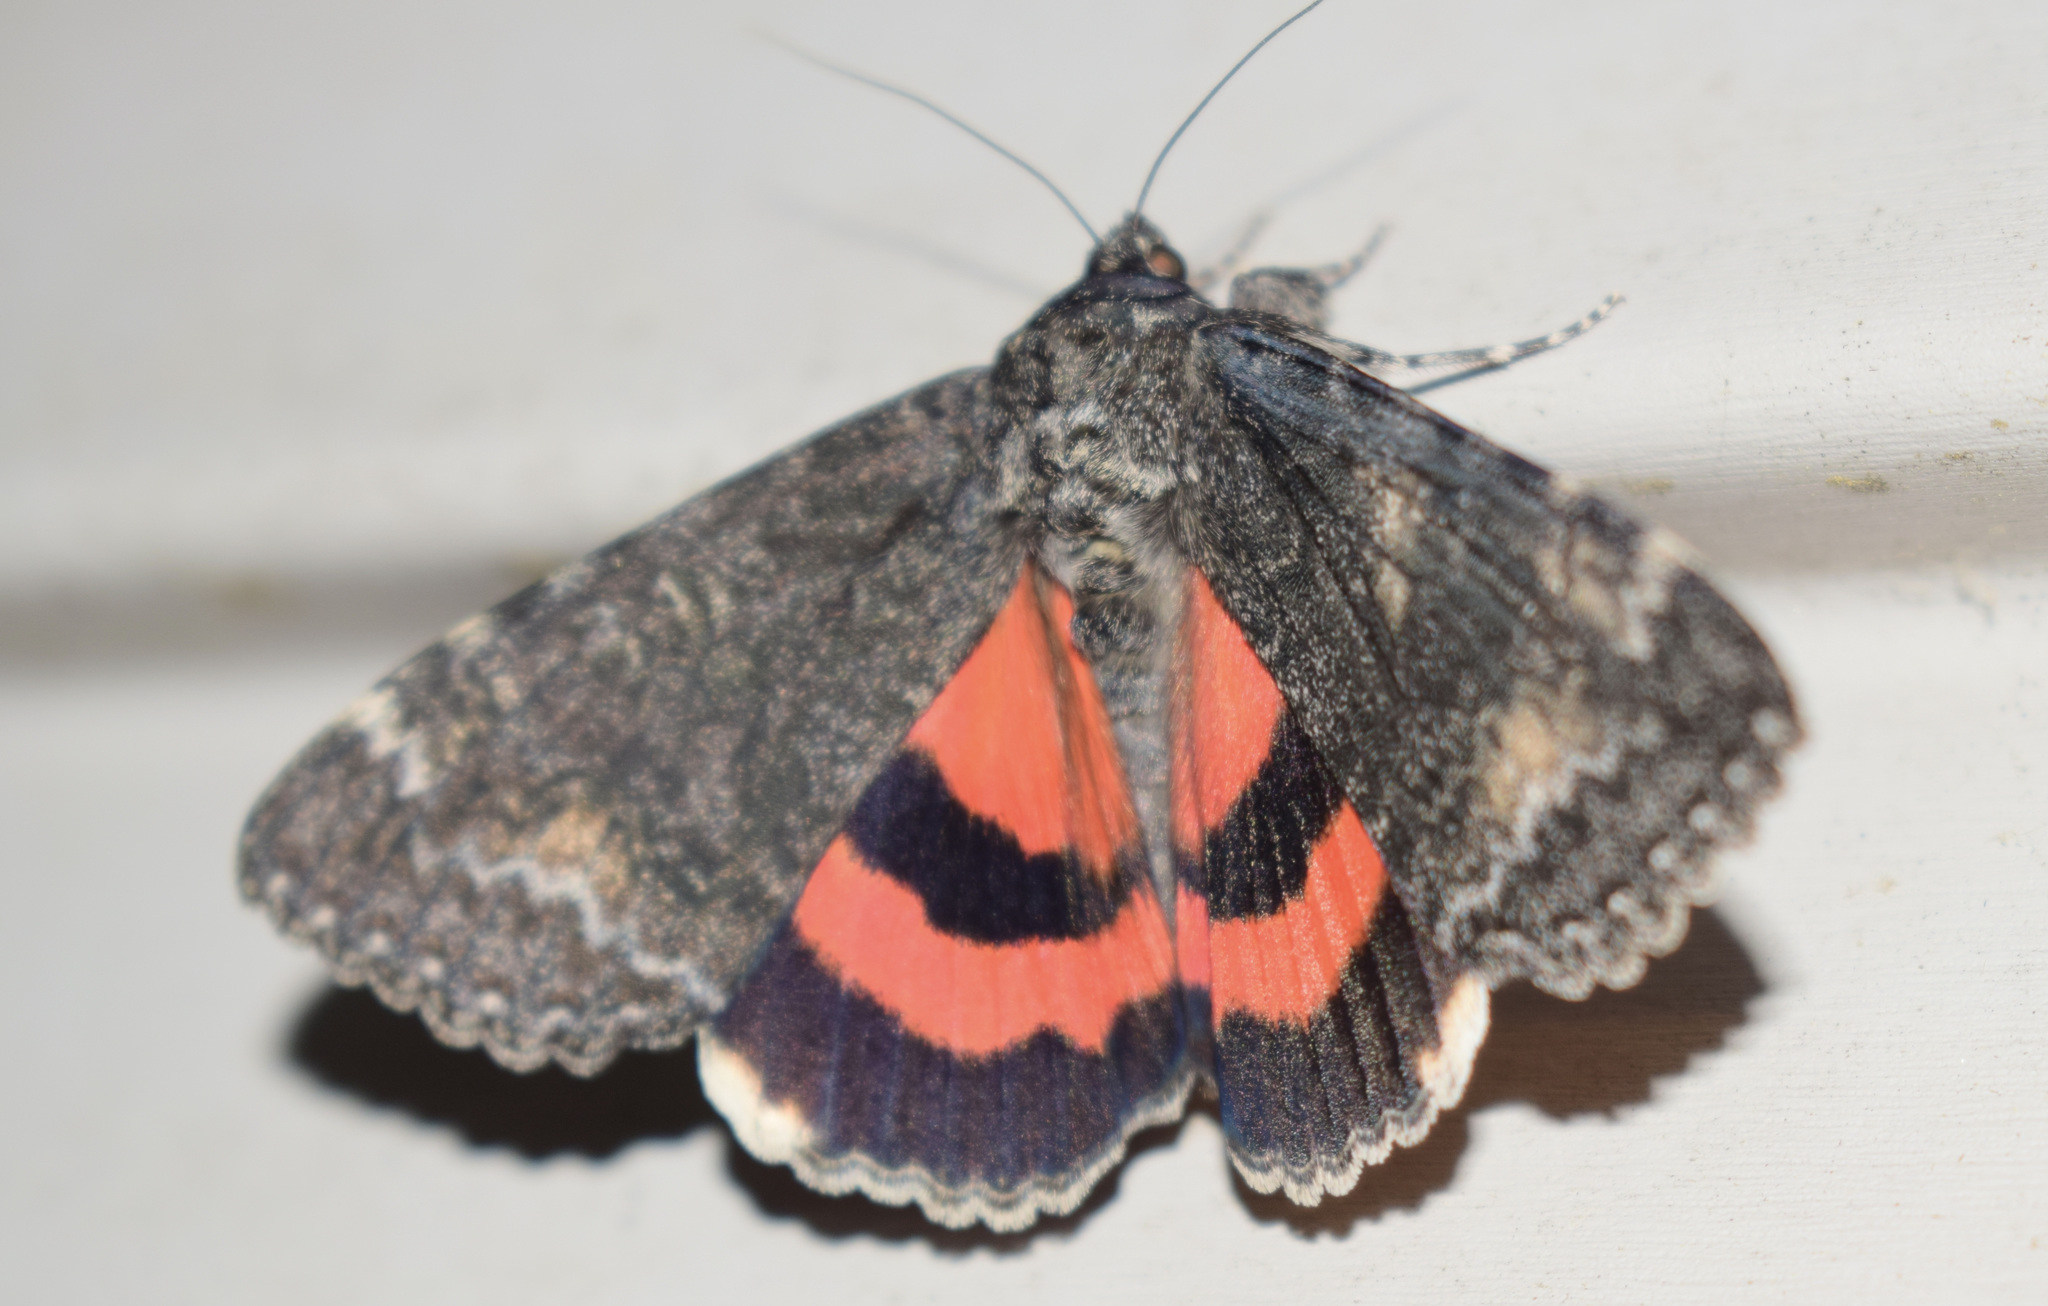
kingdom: Animalia
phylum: Arthropoda
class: Insecta
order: Lepidoptera
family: Erebidae
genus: Catocala
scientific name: Catocala briseis
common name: Briseis underwing
